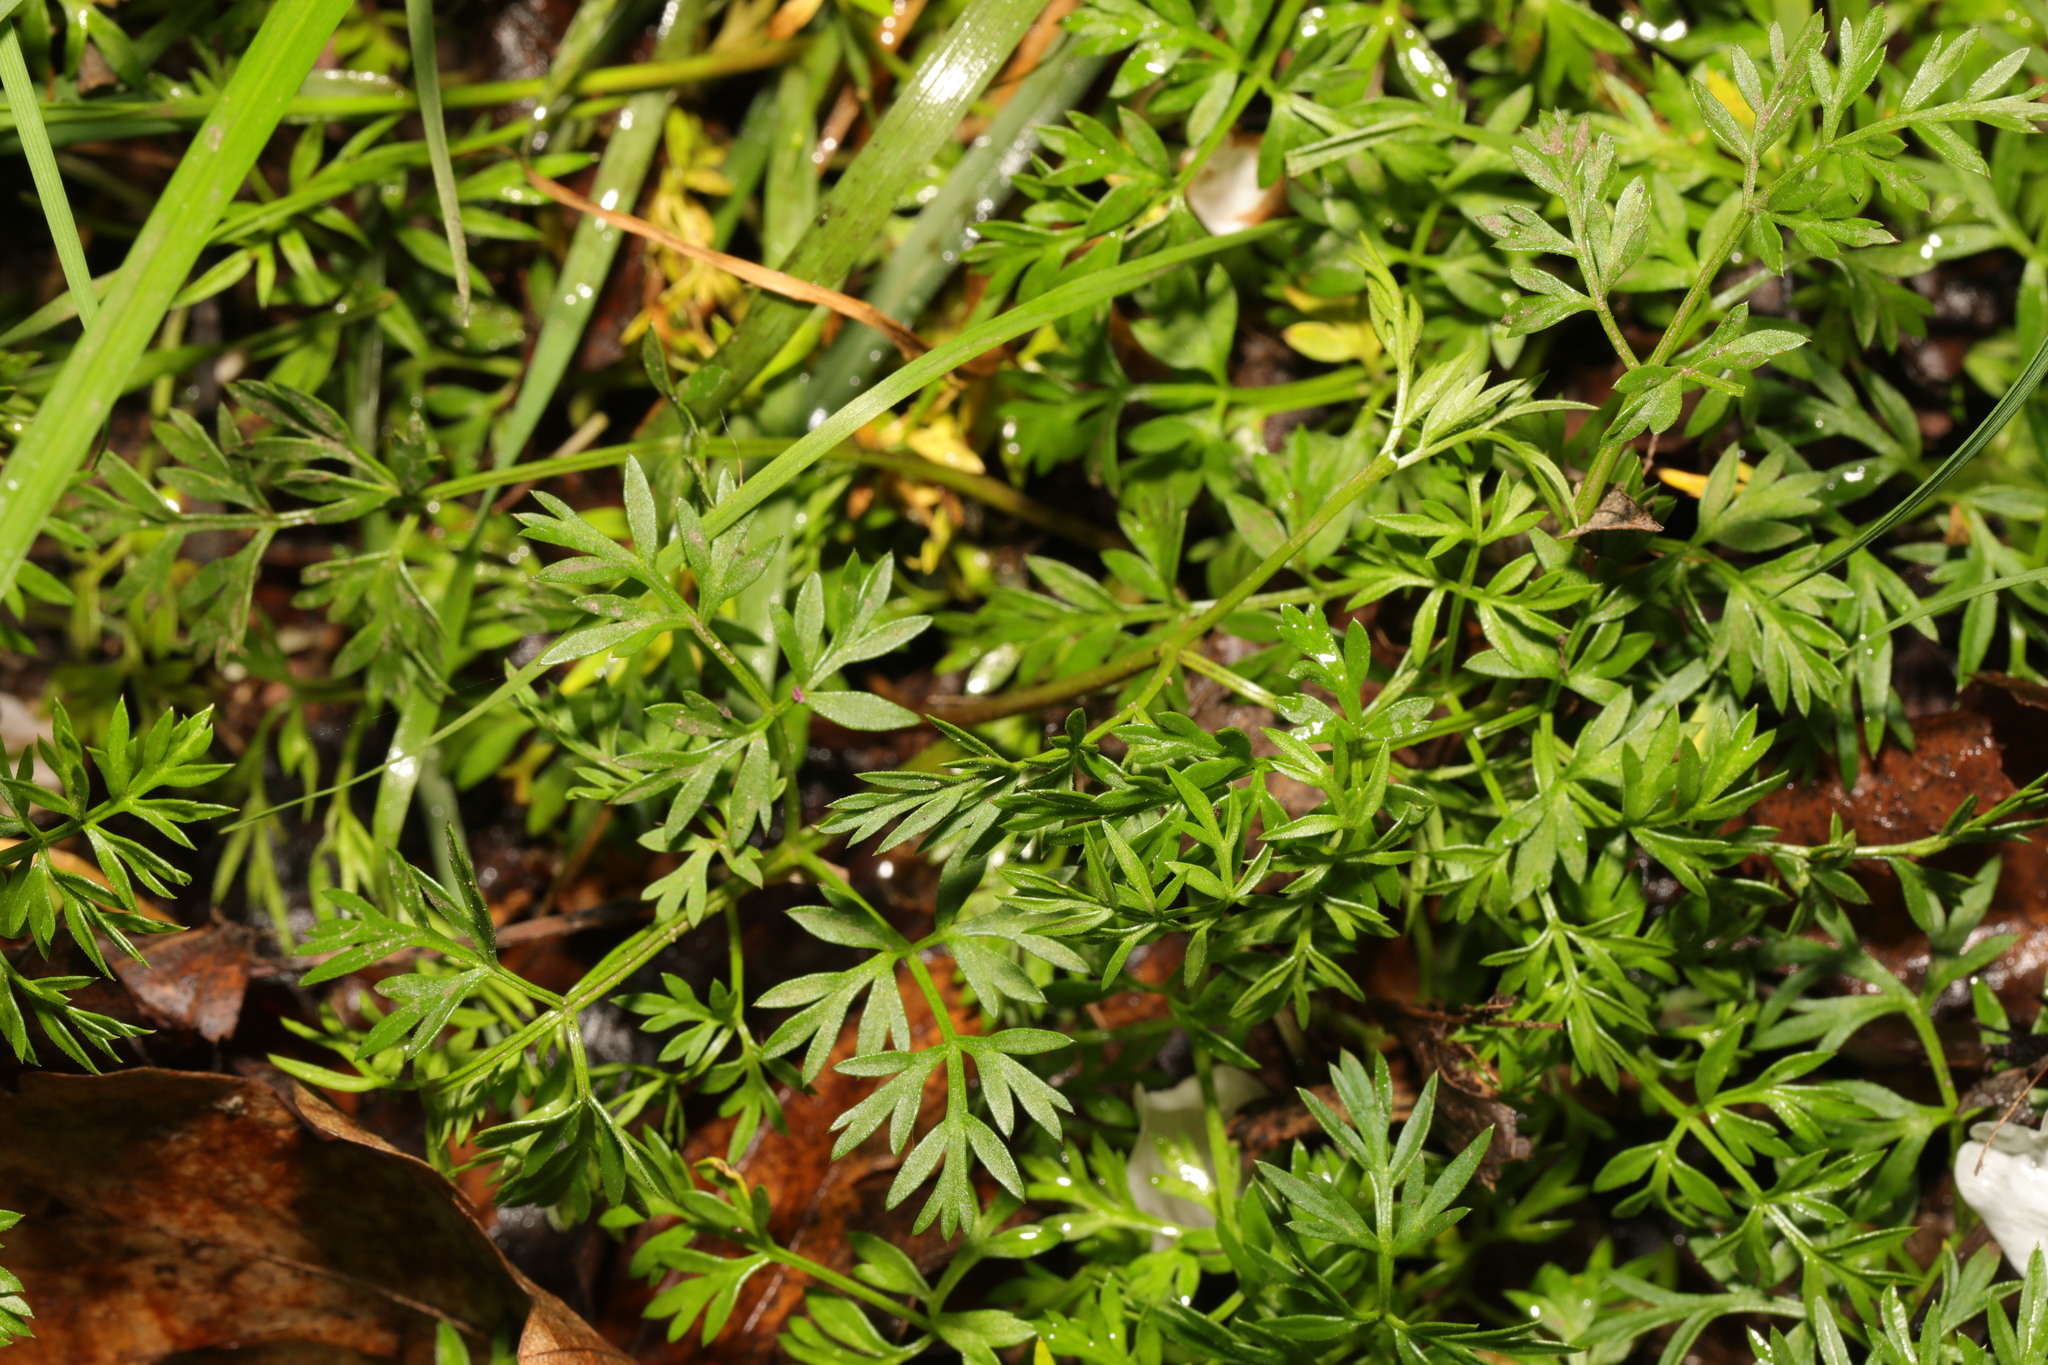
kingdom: Plantae
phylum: Tracheophyta
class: Magnoliopsida
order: Apiales
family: Apiaceae
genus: Conopodium
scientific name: Conopodium majus
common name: Pignut
